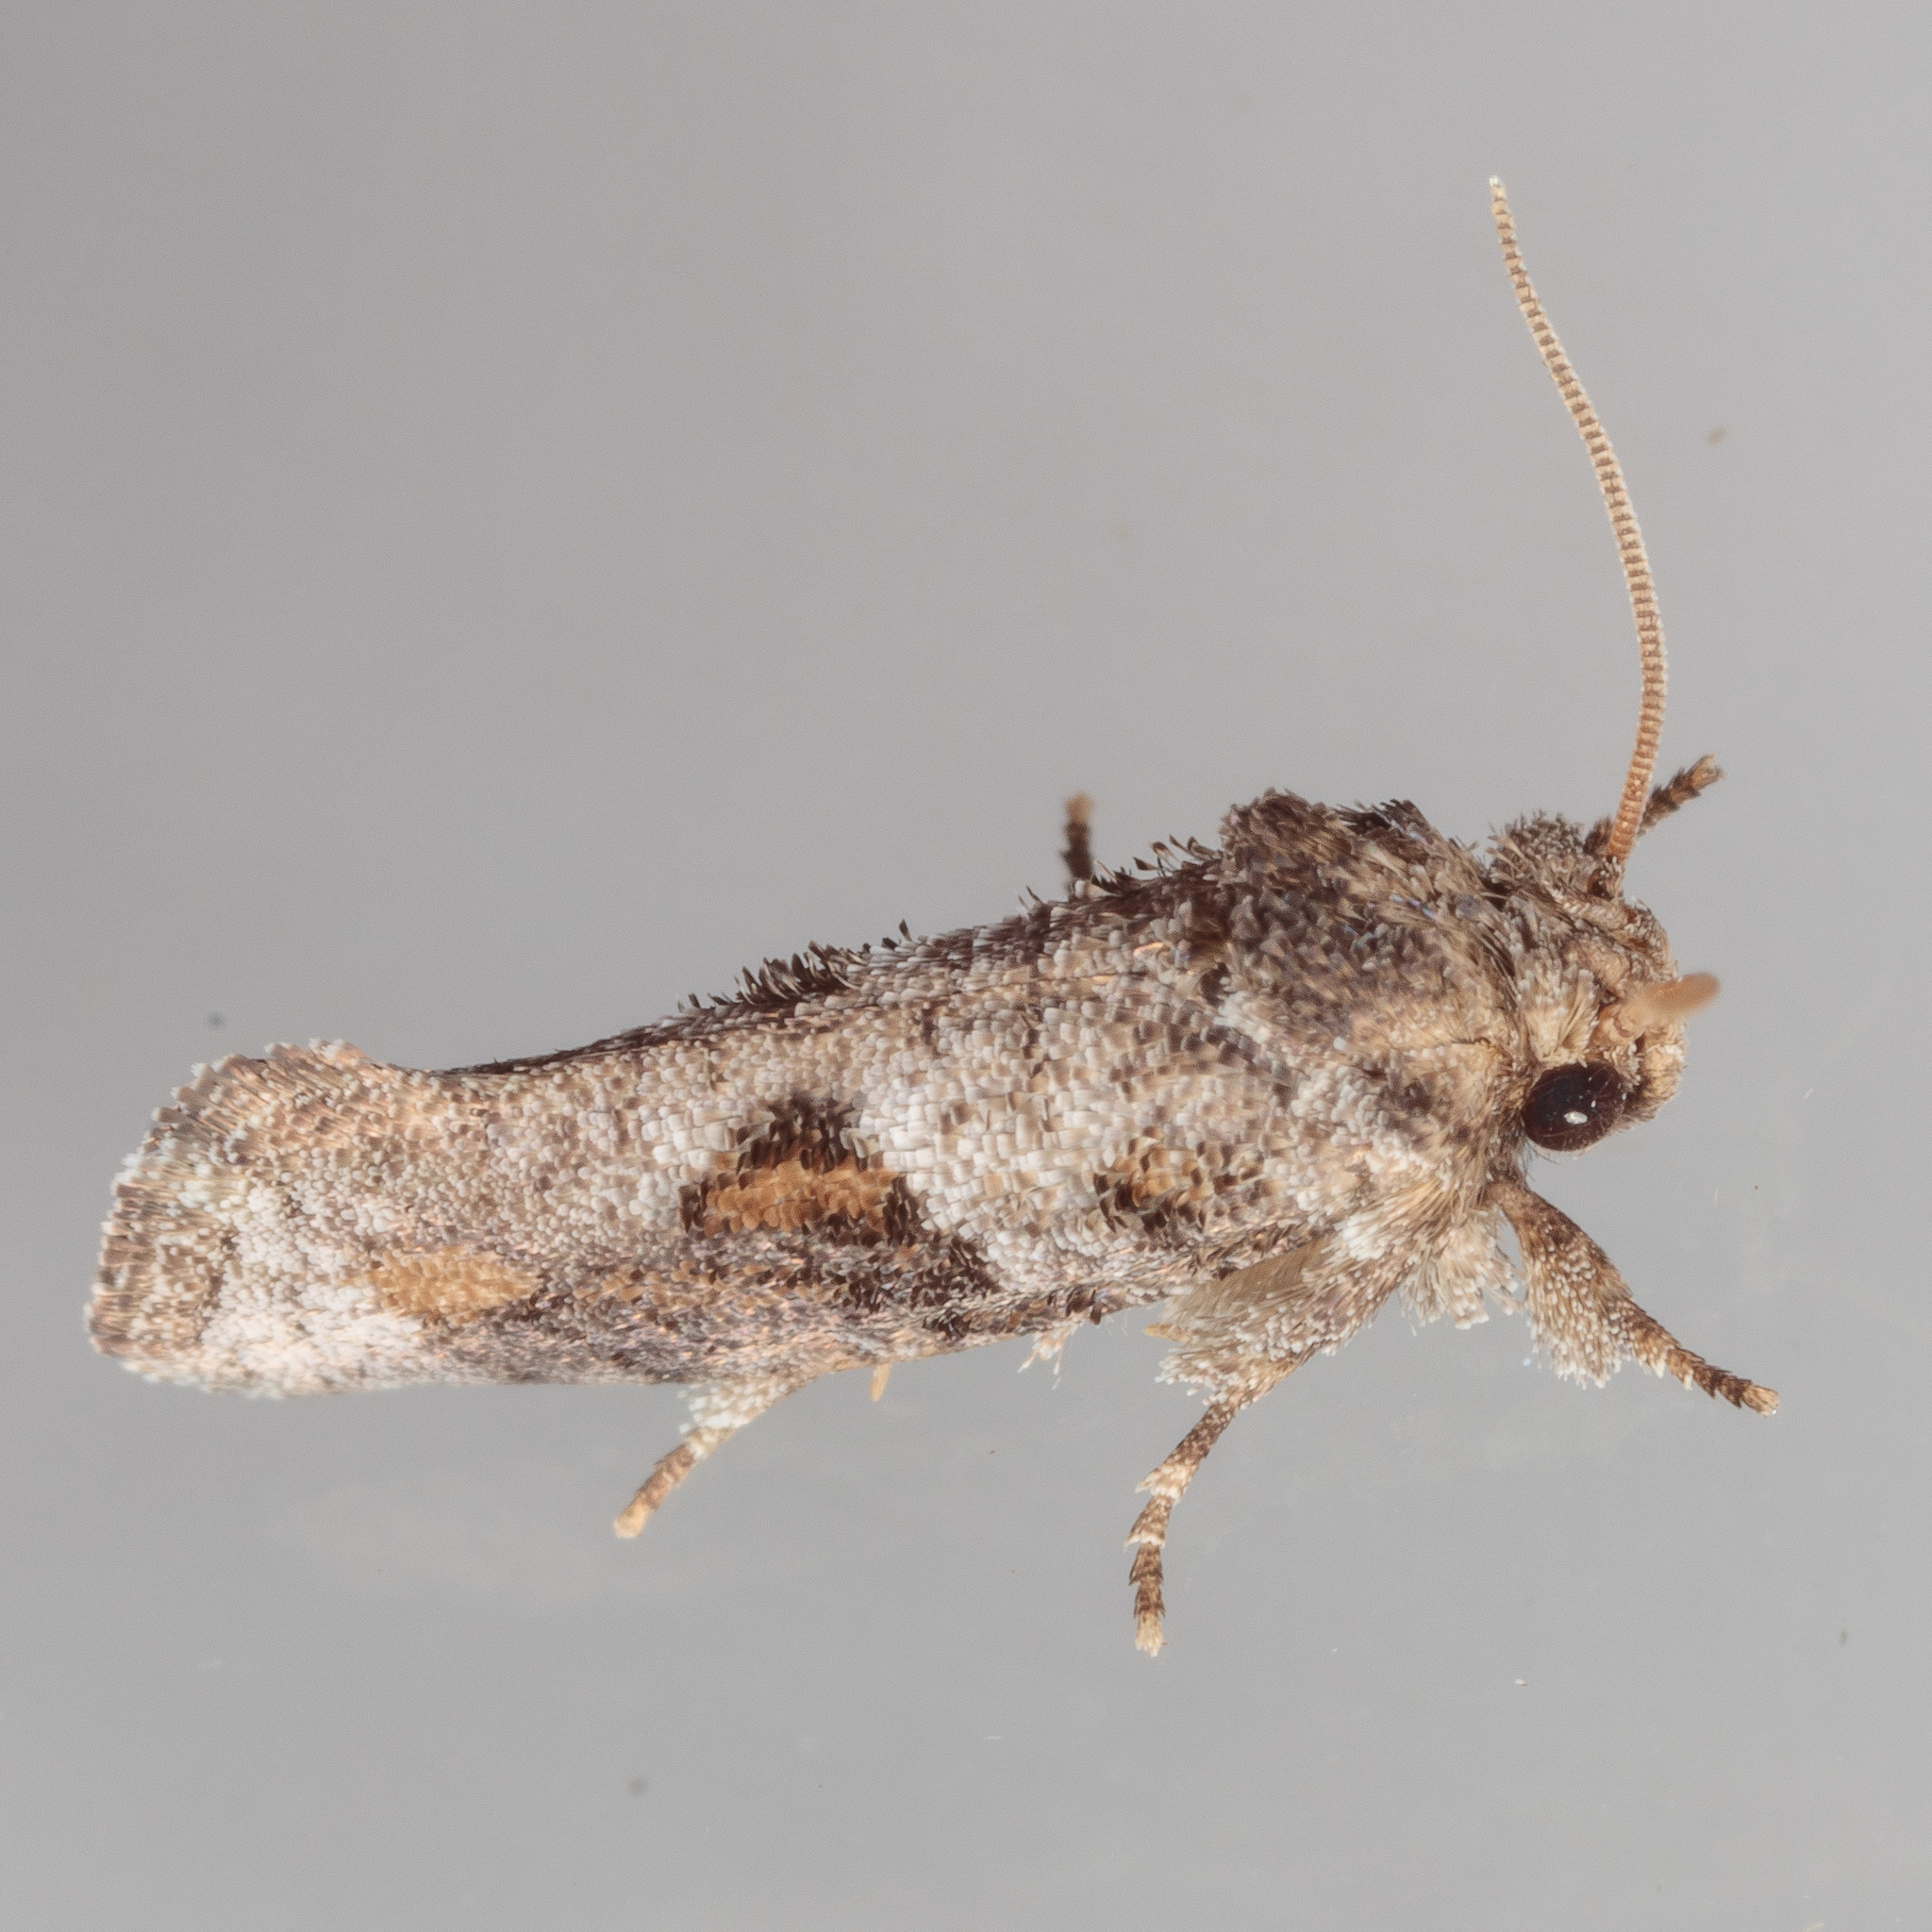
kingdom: Animalia
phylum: Arthropoda
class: Insecta
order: Lepidoptera
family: Tineidae
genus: Acrolophus
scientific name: Acrolophus piger
